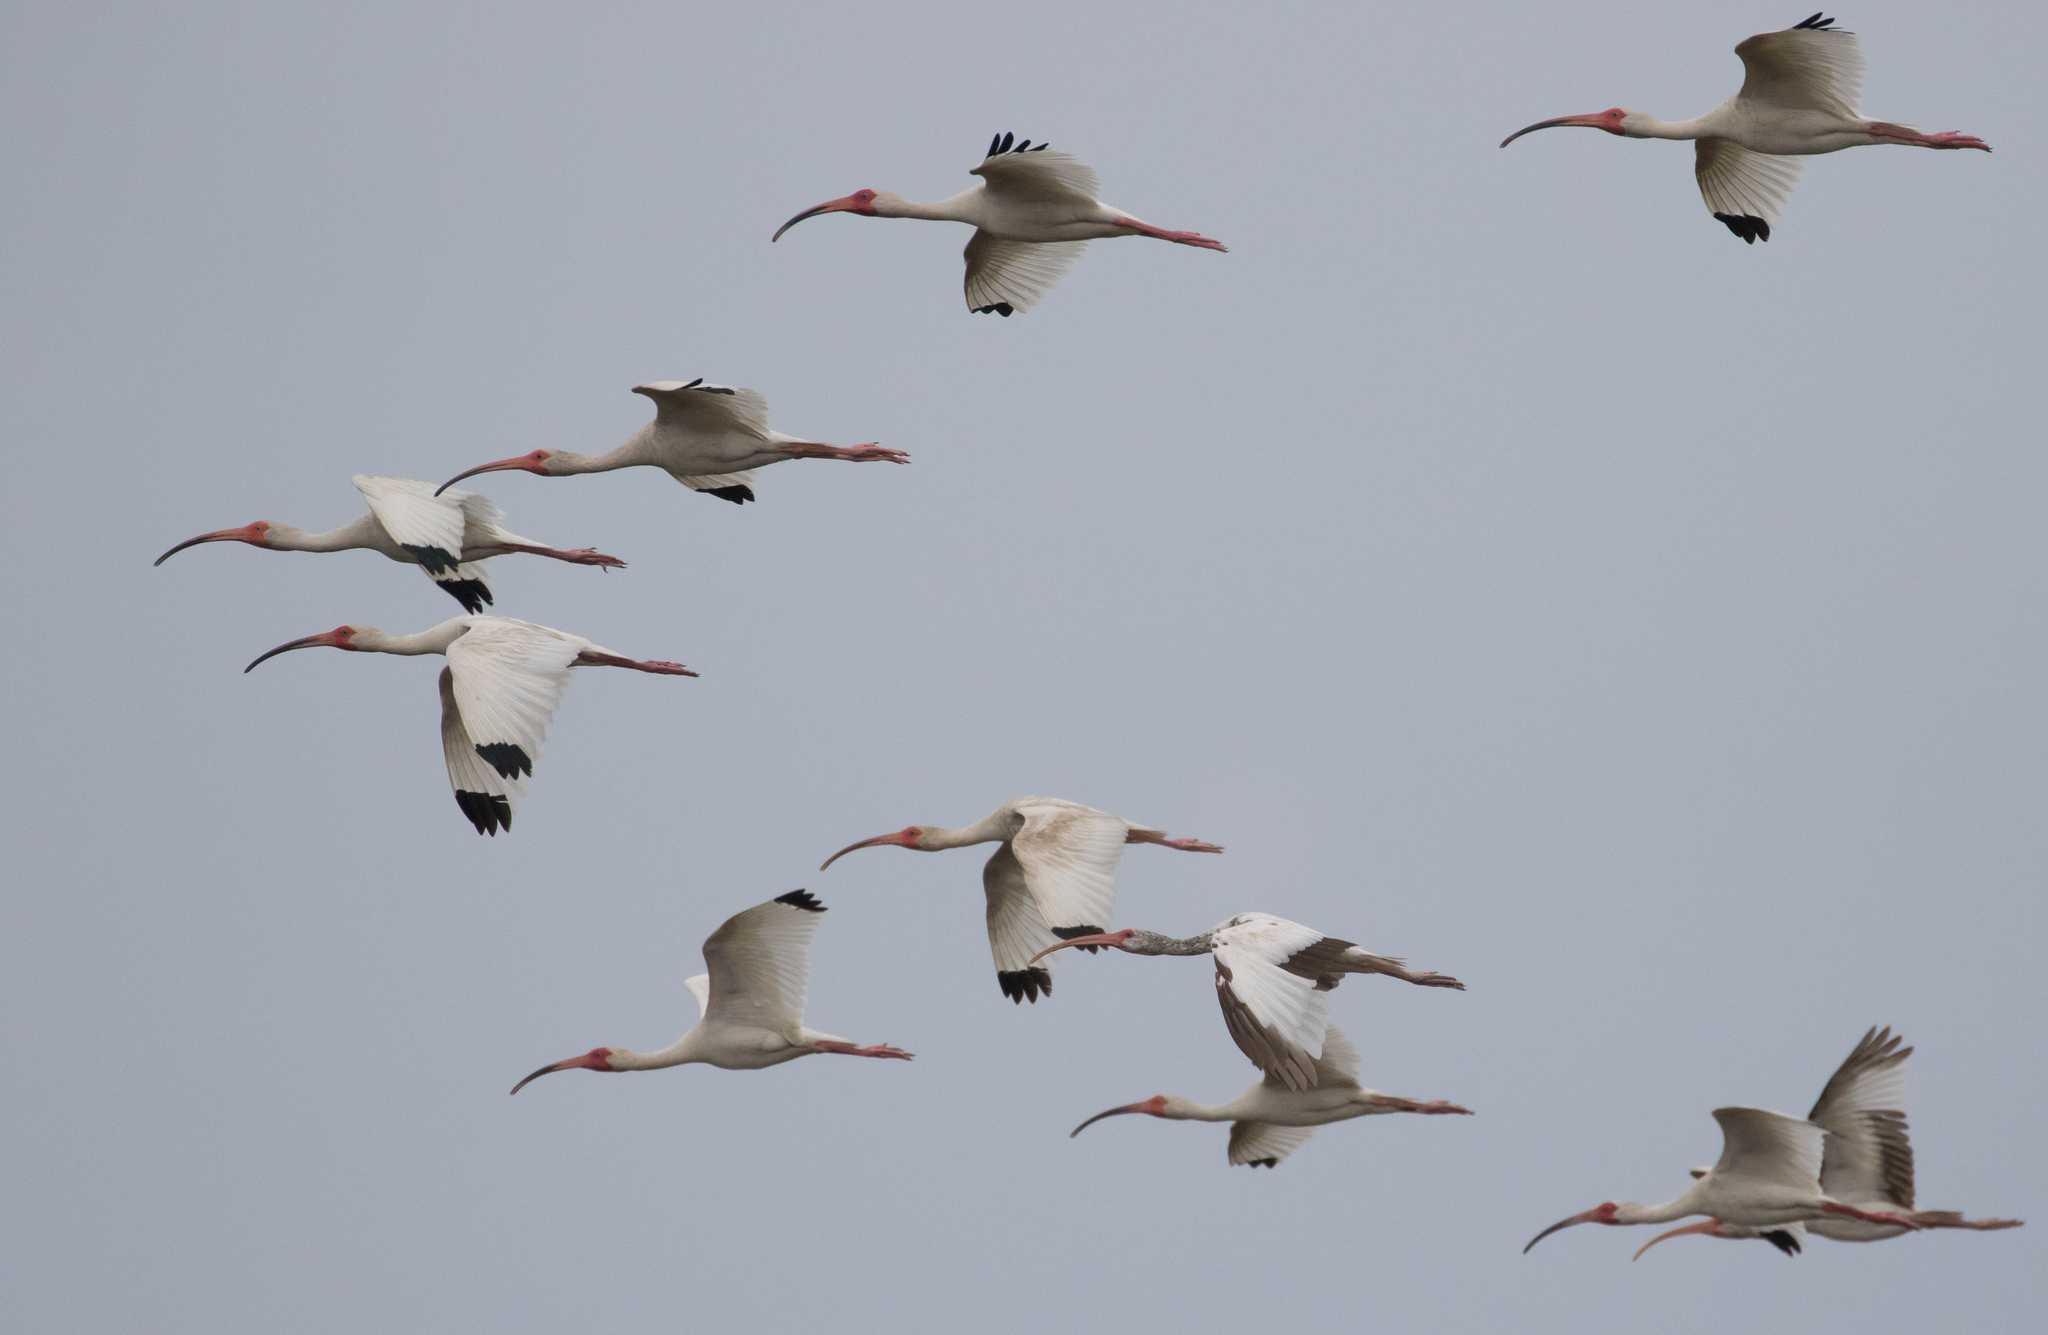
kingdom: Animalia
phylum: Chordata
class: Aves
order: Pelecaniformes
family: Threskiornithidae
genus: Eudocimus
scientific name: Eudocimus albus
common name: White ibis
